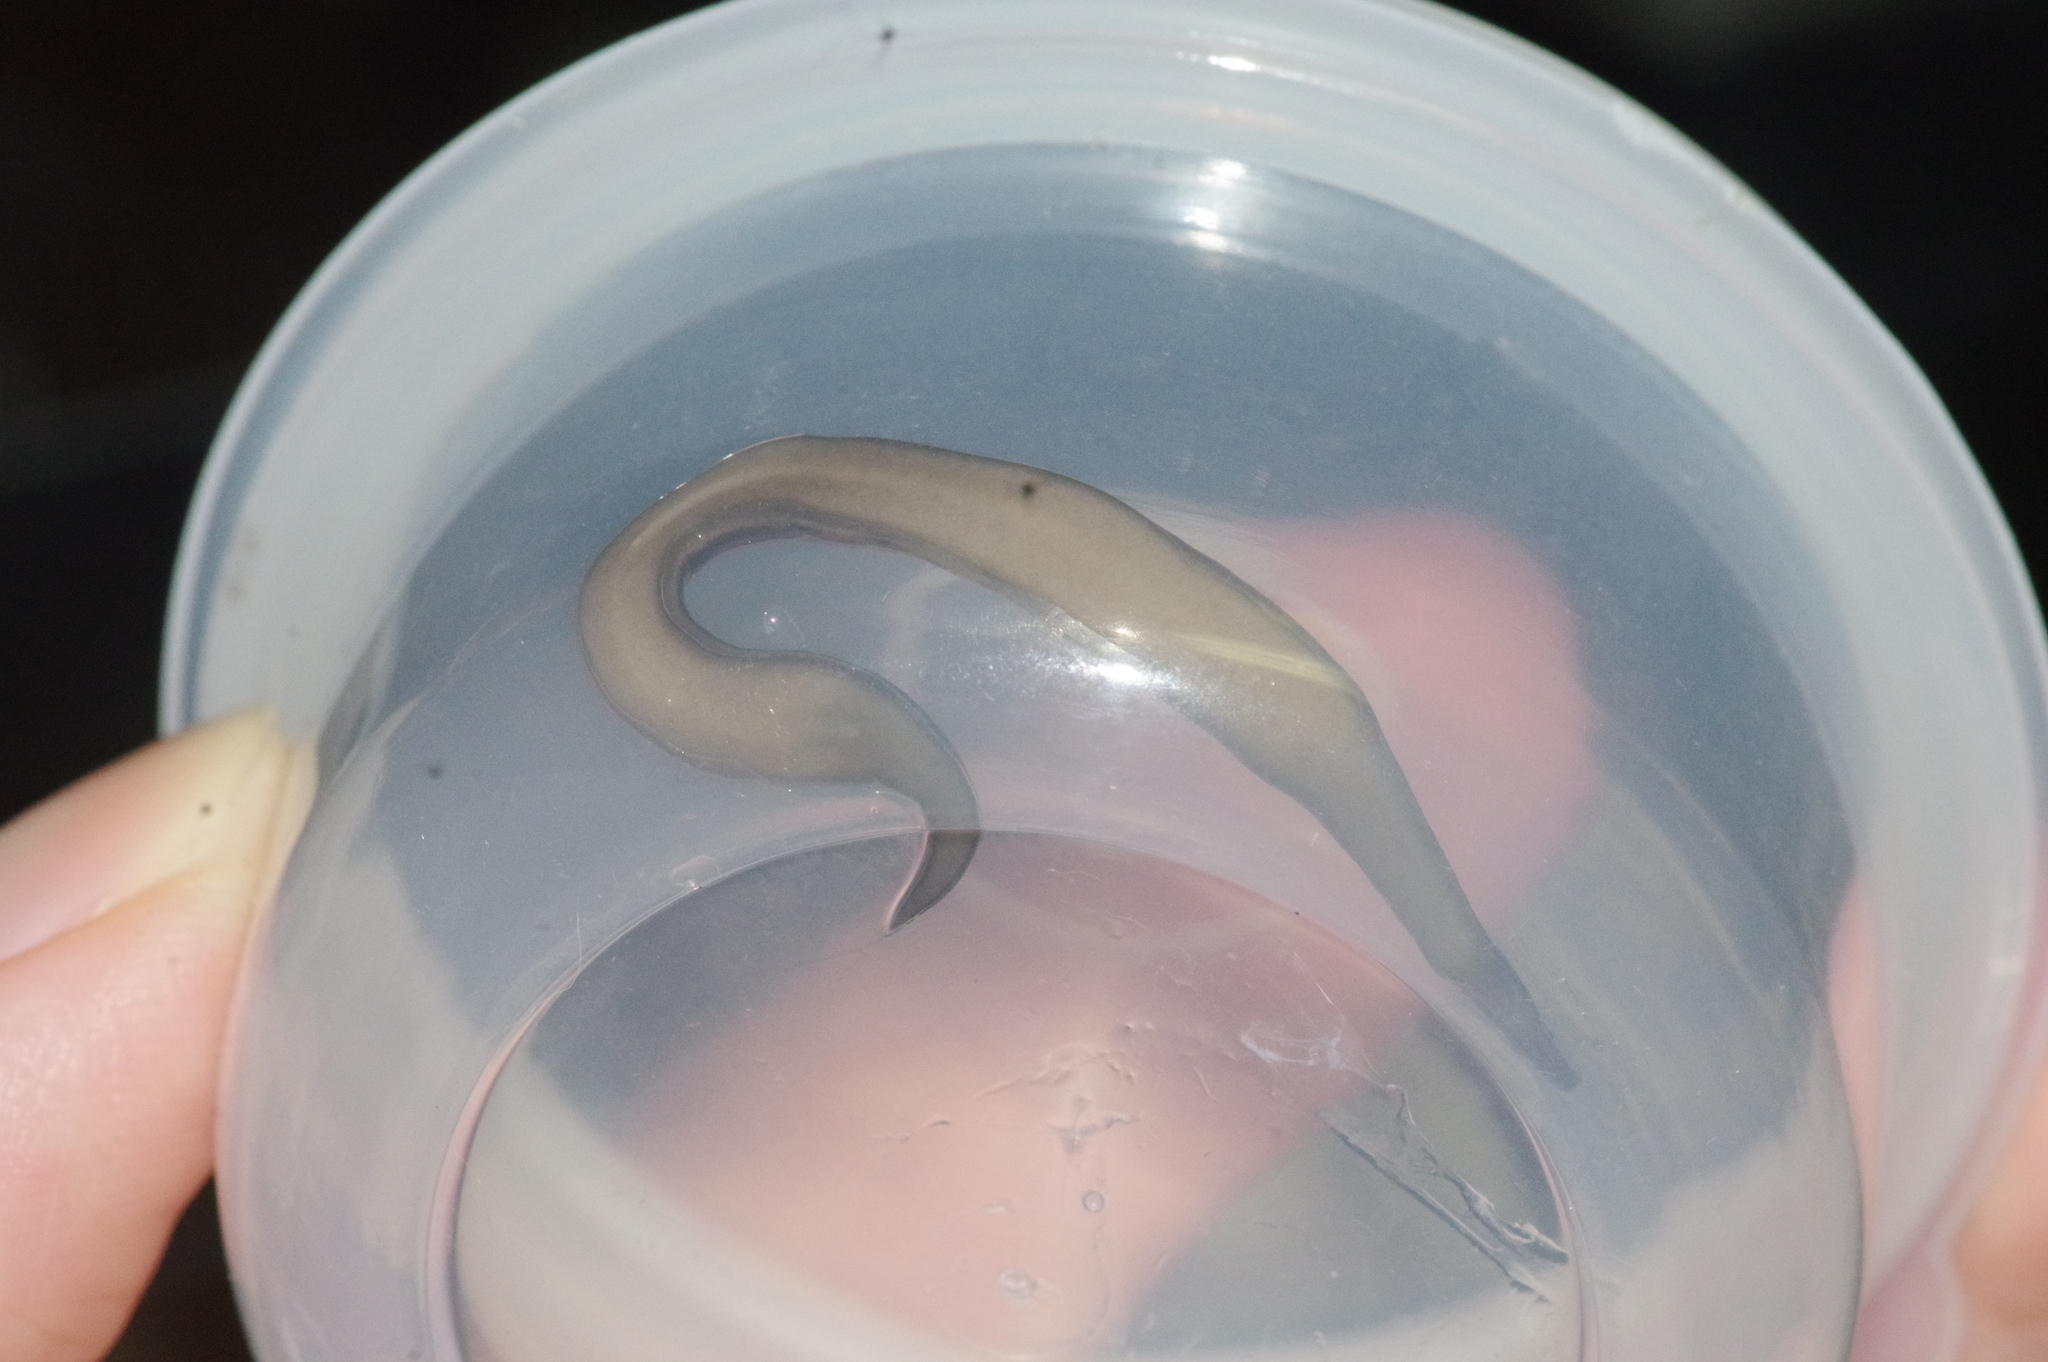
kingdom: Animalia
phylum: Platyhelminthes
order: Tricladida
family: Geoplanidae
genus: Platydemus
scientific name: Platydemus manokwari
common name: New guinea flatworm
